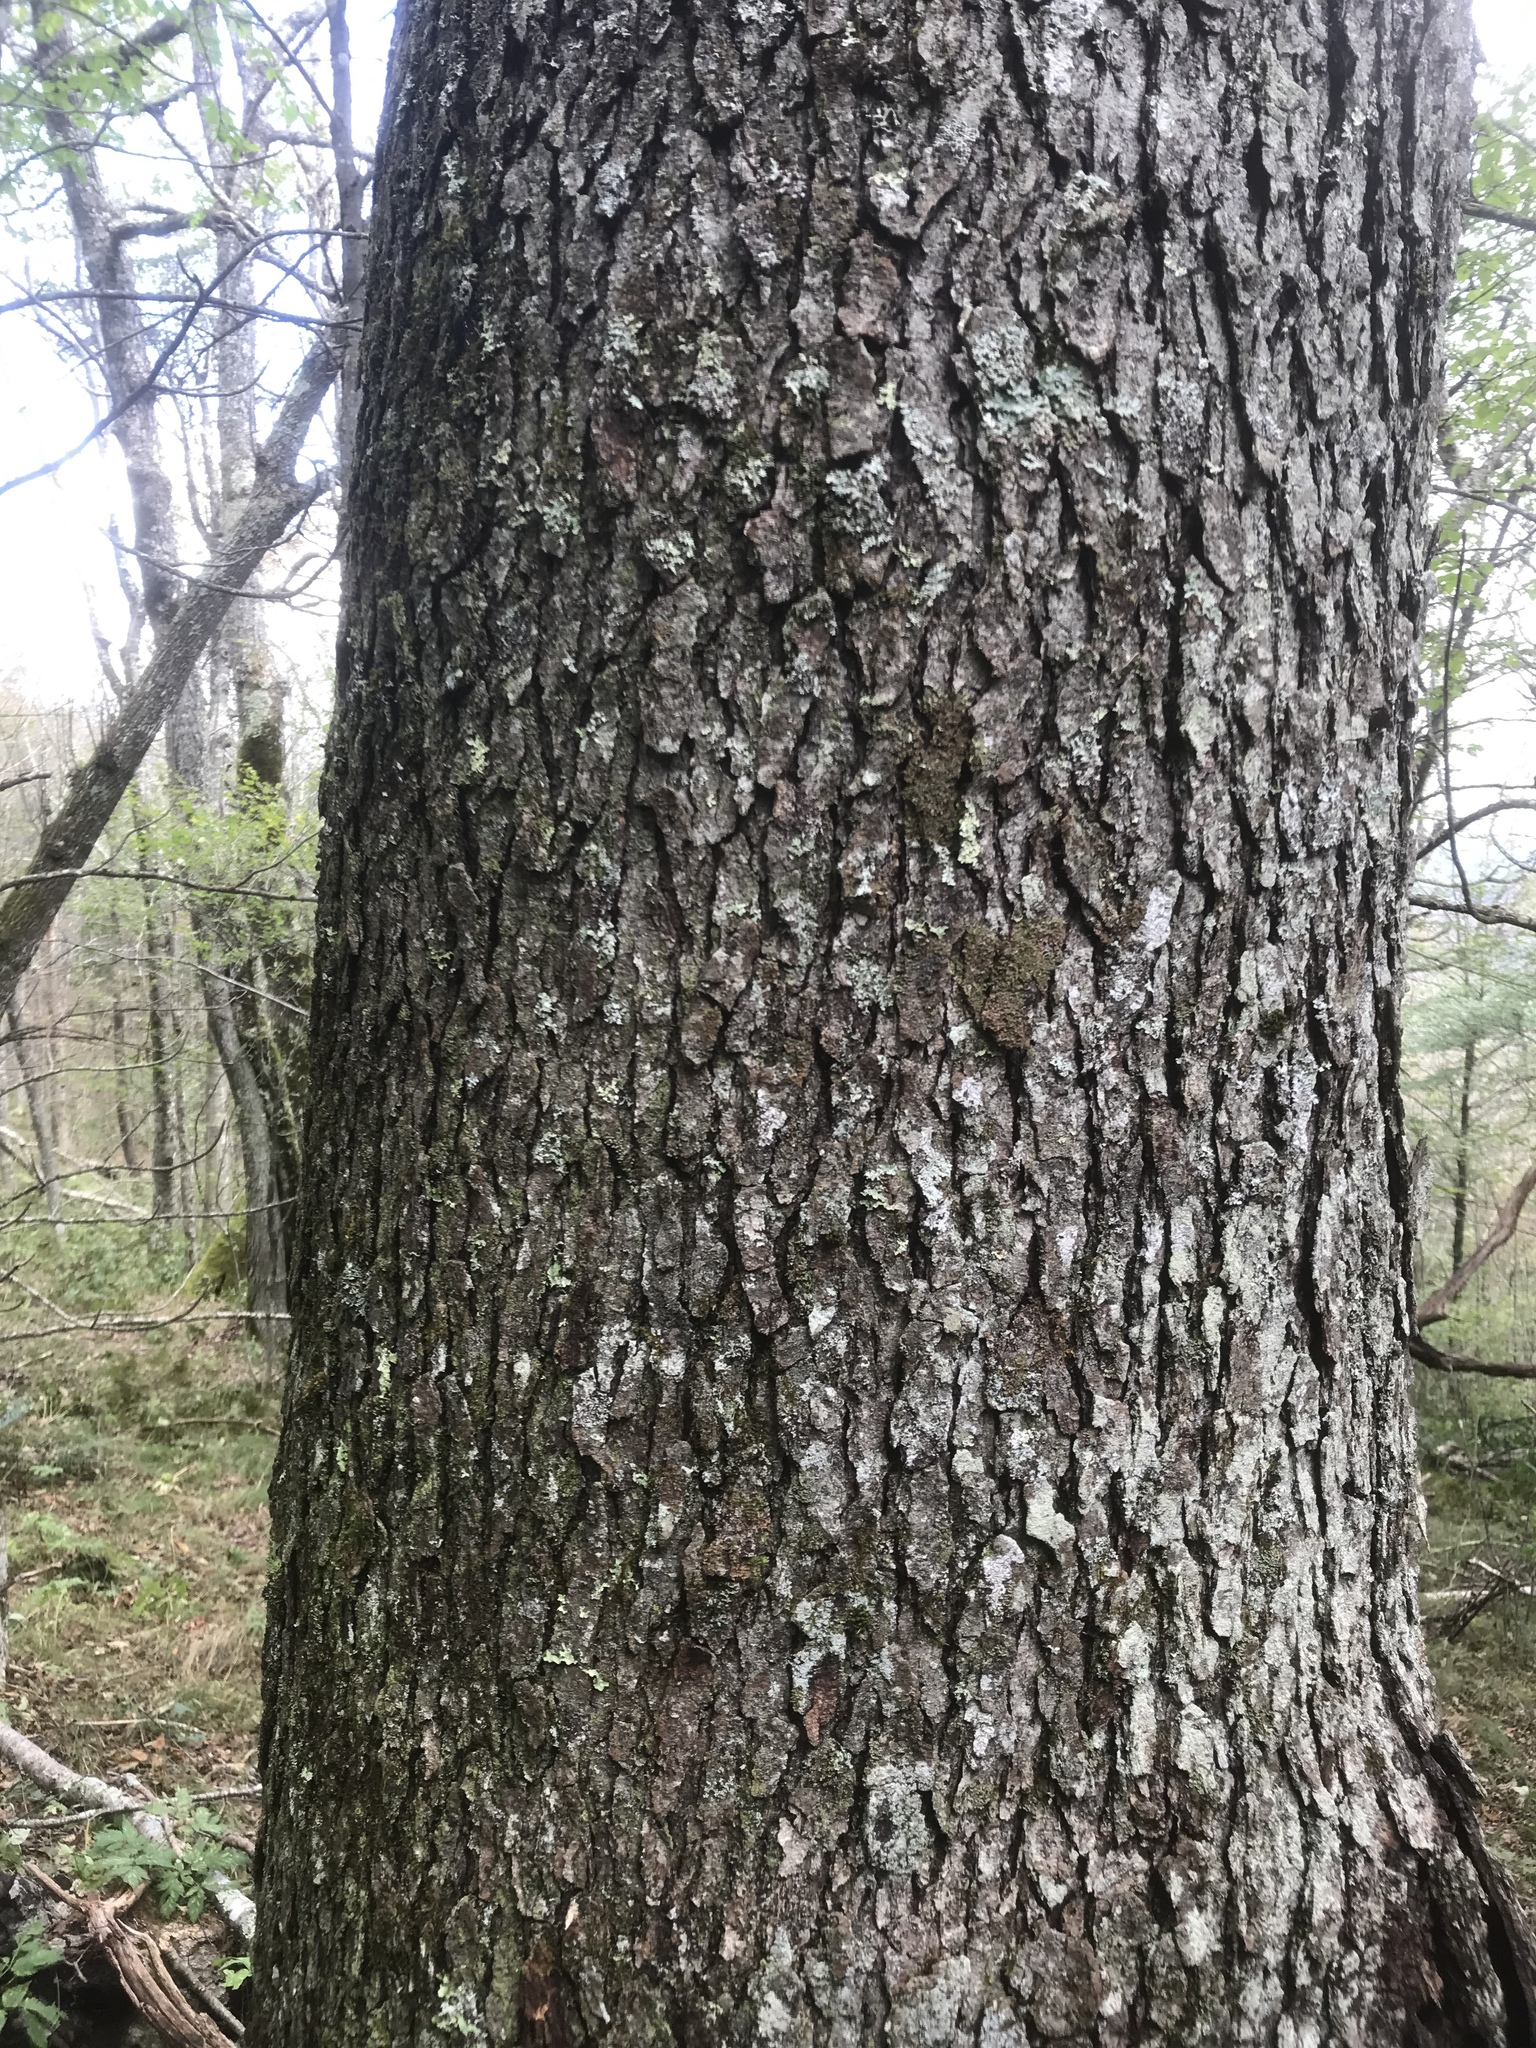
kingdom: Plantae
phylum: Tracheophyta
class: Magnoliopsida
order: Rosales
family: Rosaceae
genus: Prunus
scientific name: Prunus serotina
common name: Black cherry
